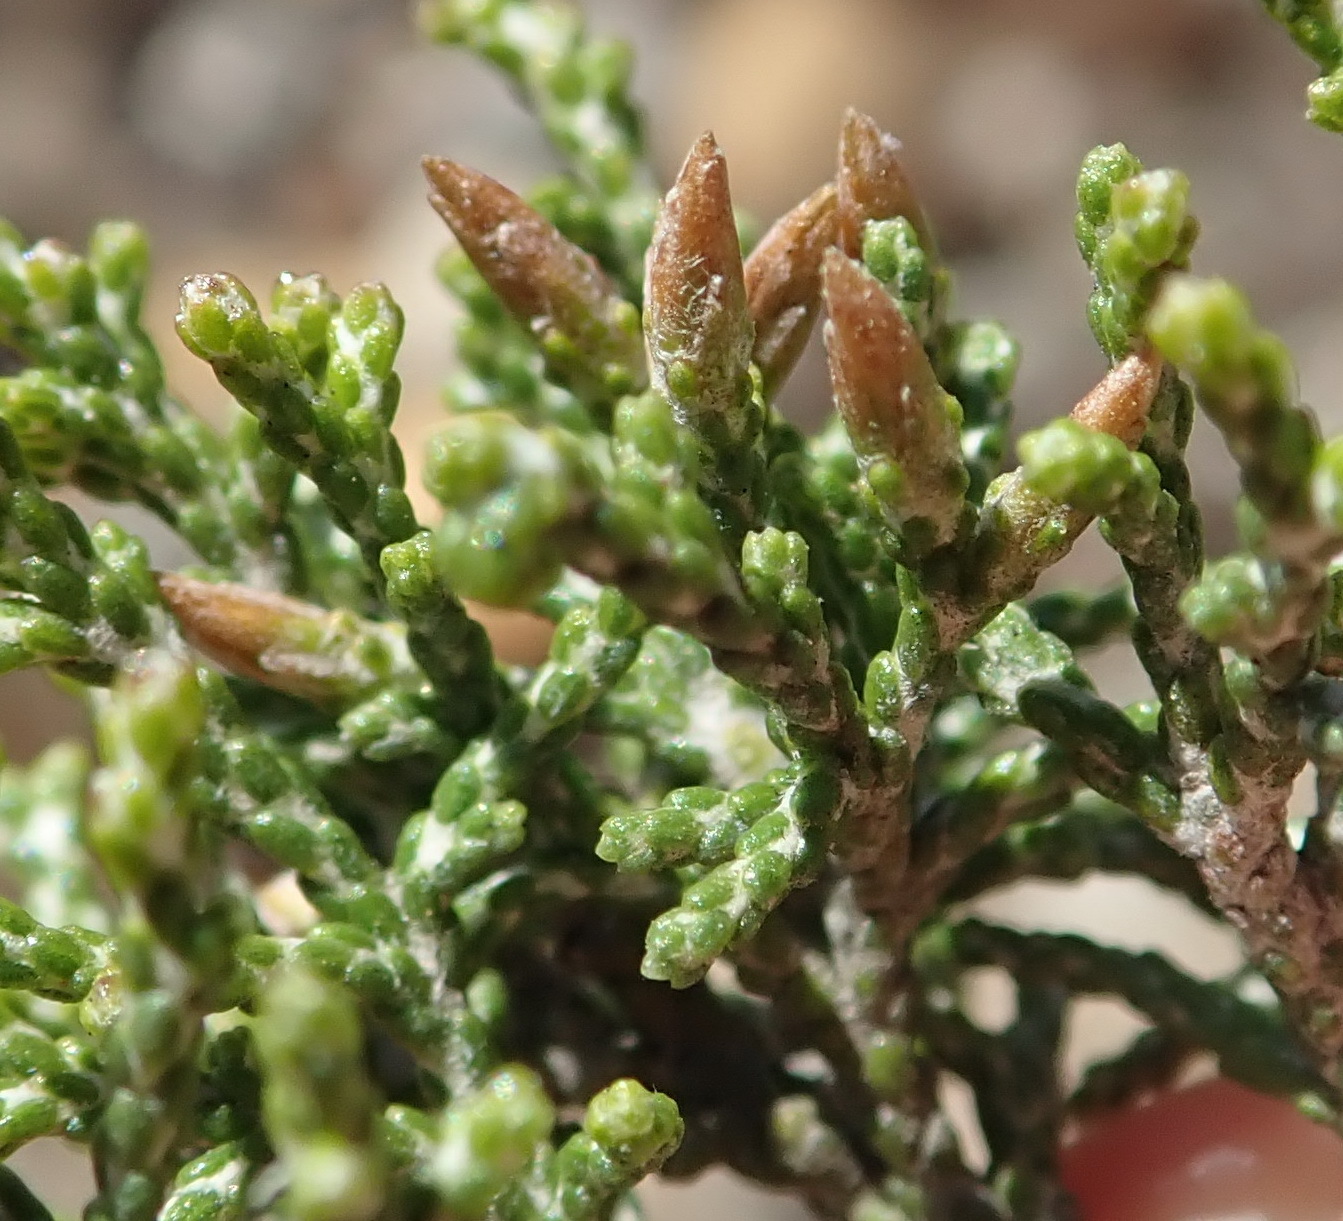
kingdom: Plantae
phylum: Tracheophyta
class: Magnoliopsida
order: Asterales
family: Asteraceae
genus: Dicerothamnus
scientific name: Dicerothamnus rhinocerotis
